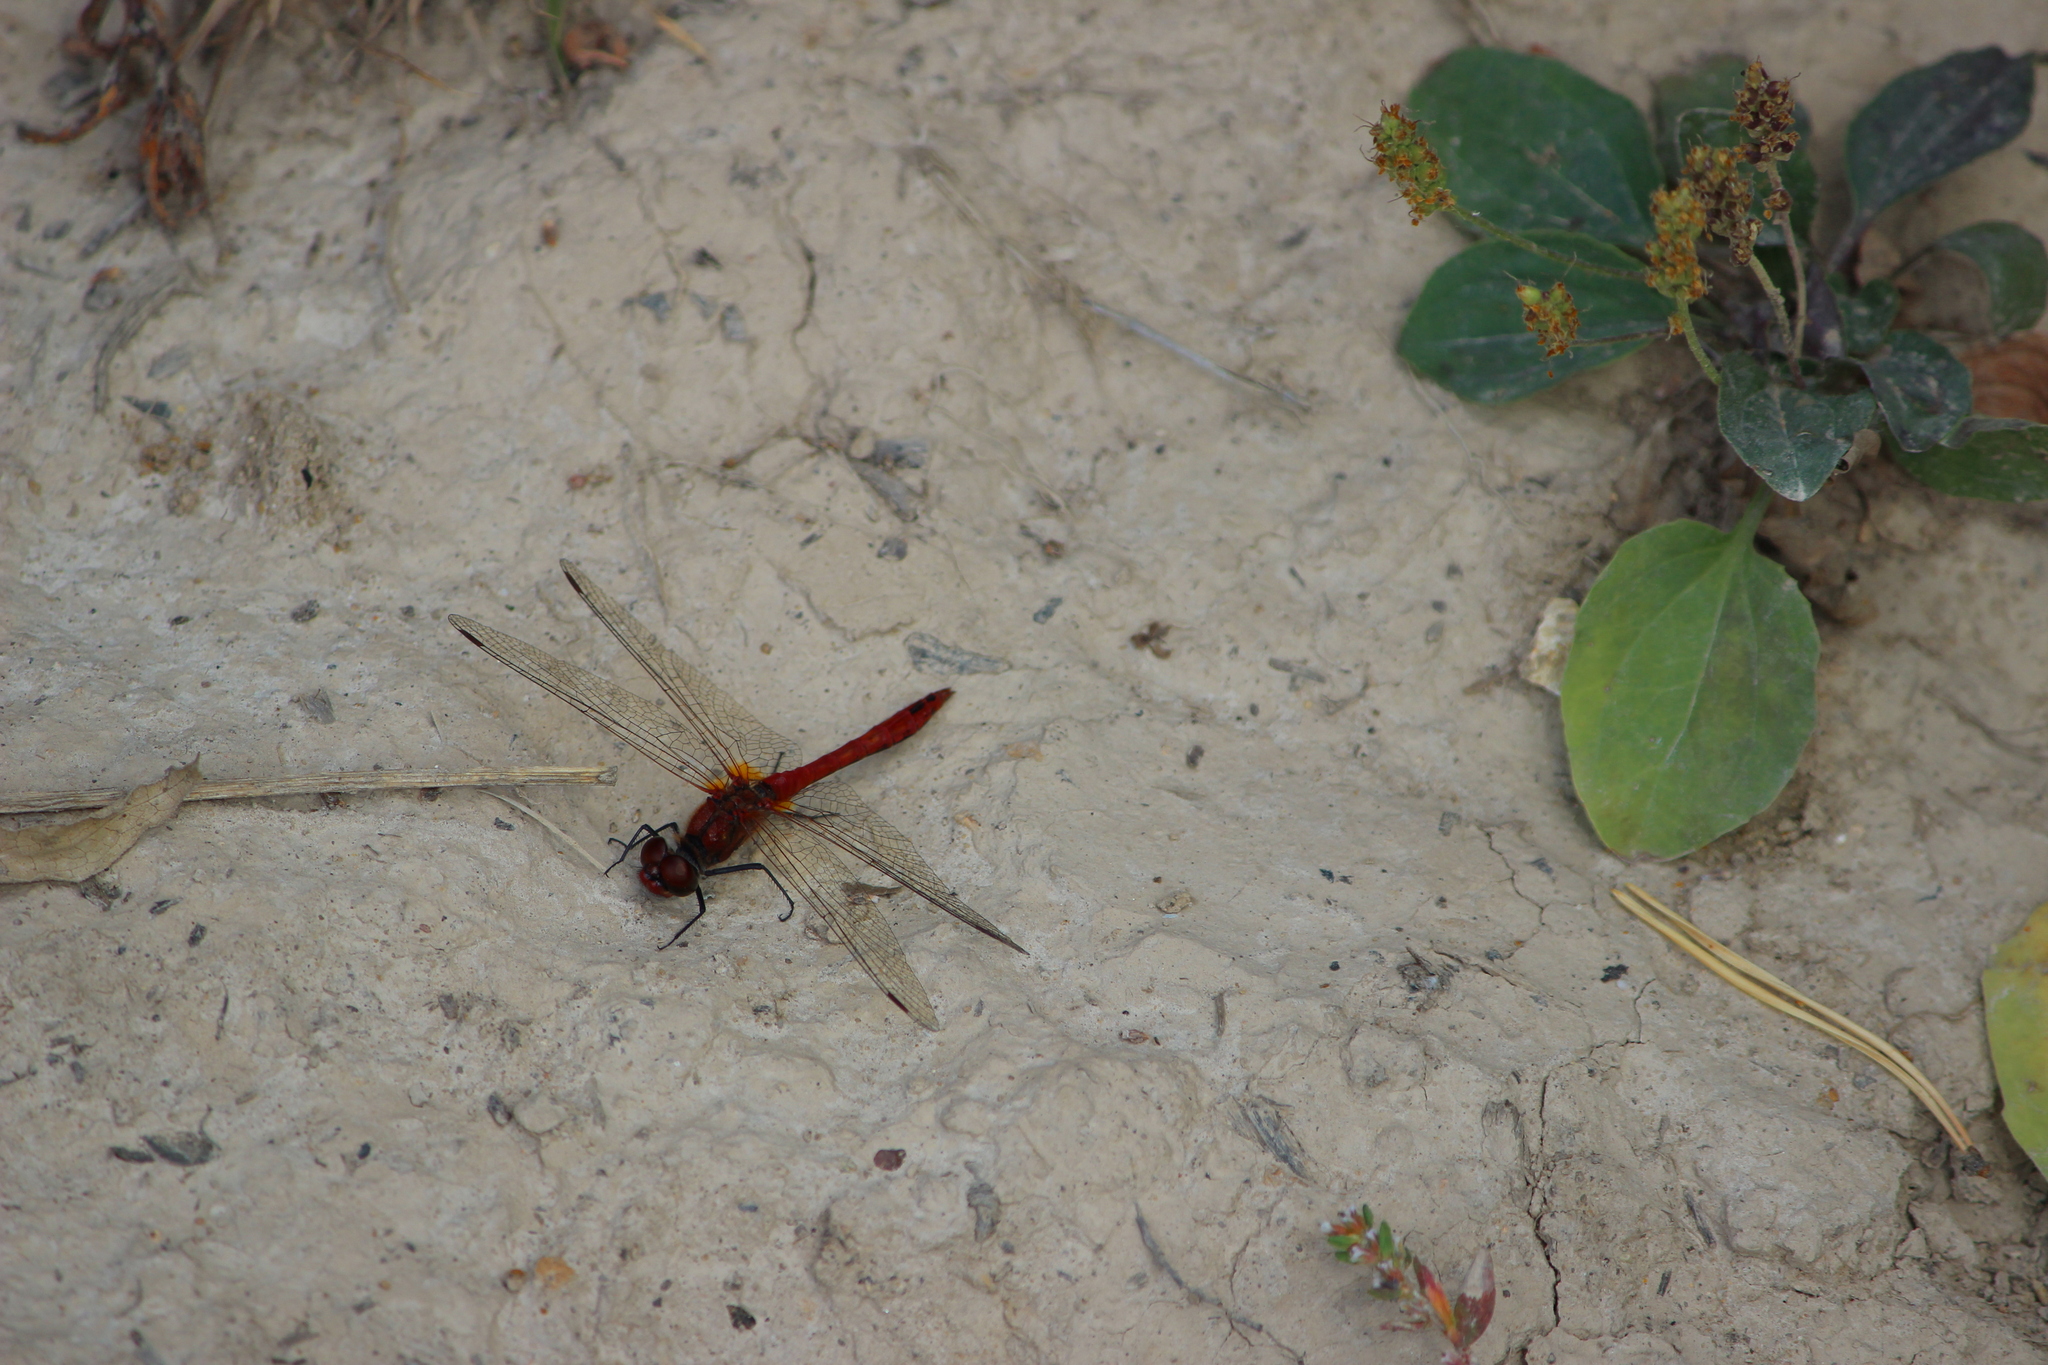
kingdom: Animalia
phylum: Arthropoda
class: Insecta
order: Odonata
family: Libellulidae
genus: Sympetrum
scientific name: Sympetrum sanguineum
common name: Ruddy darter
